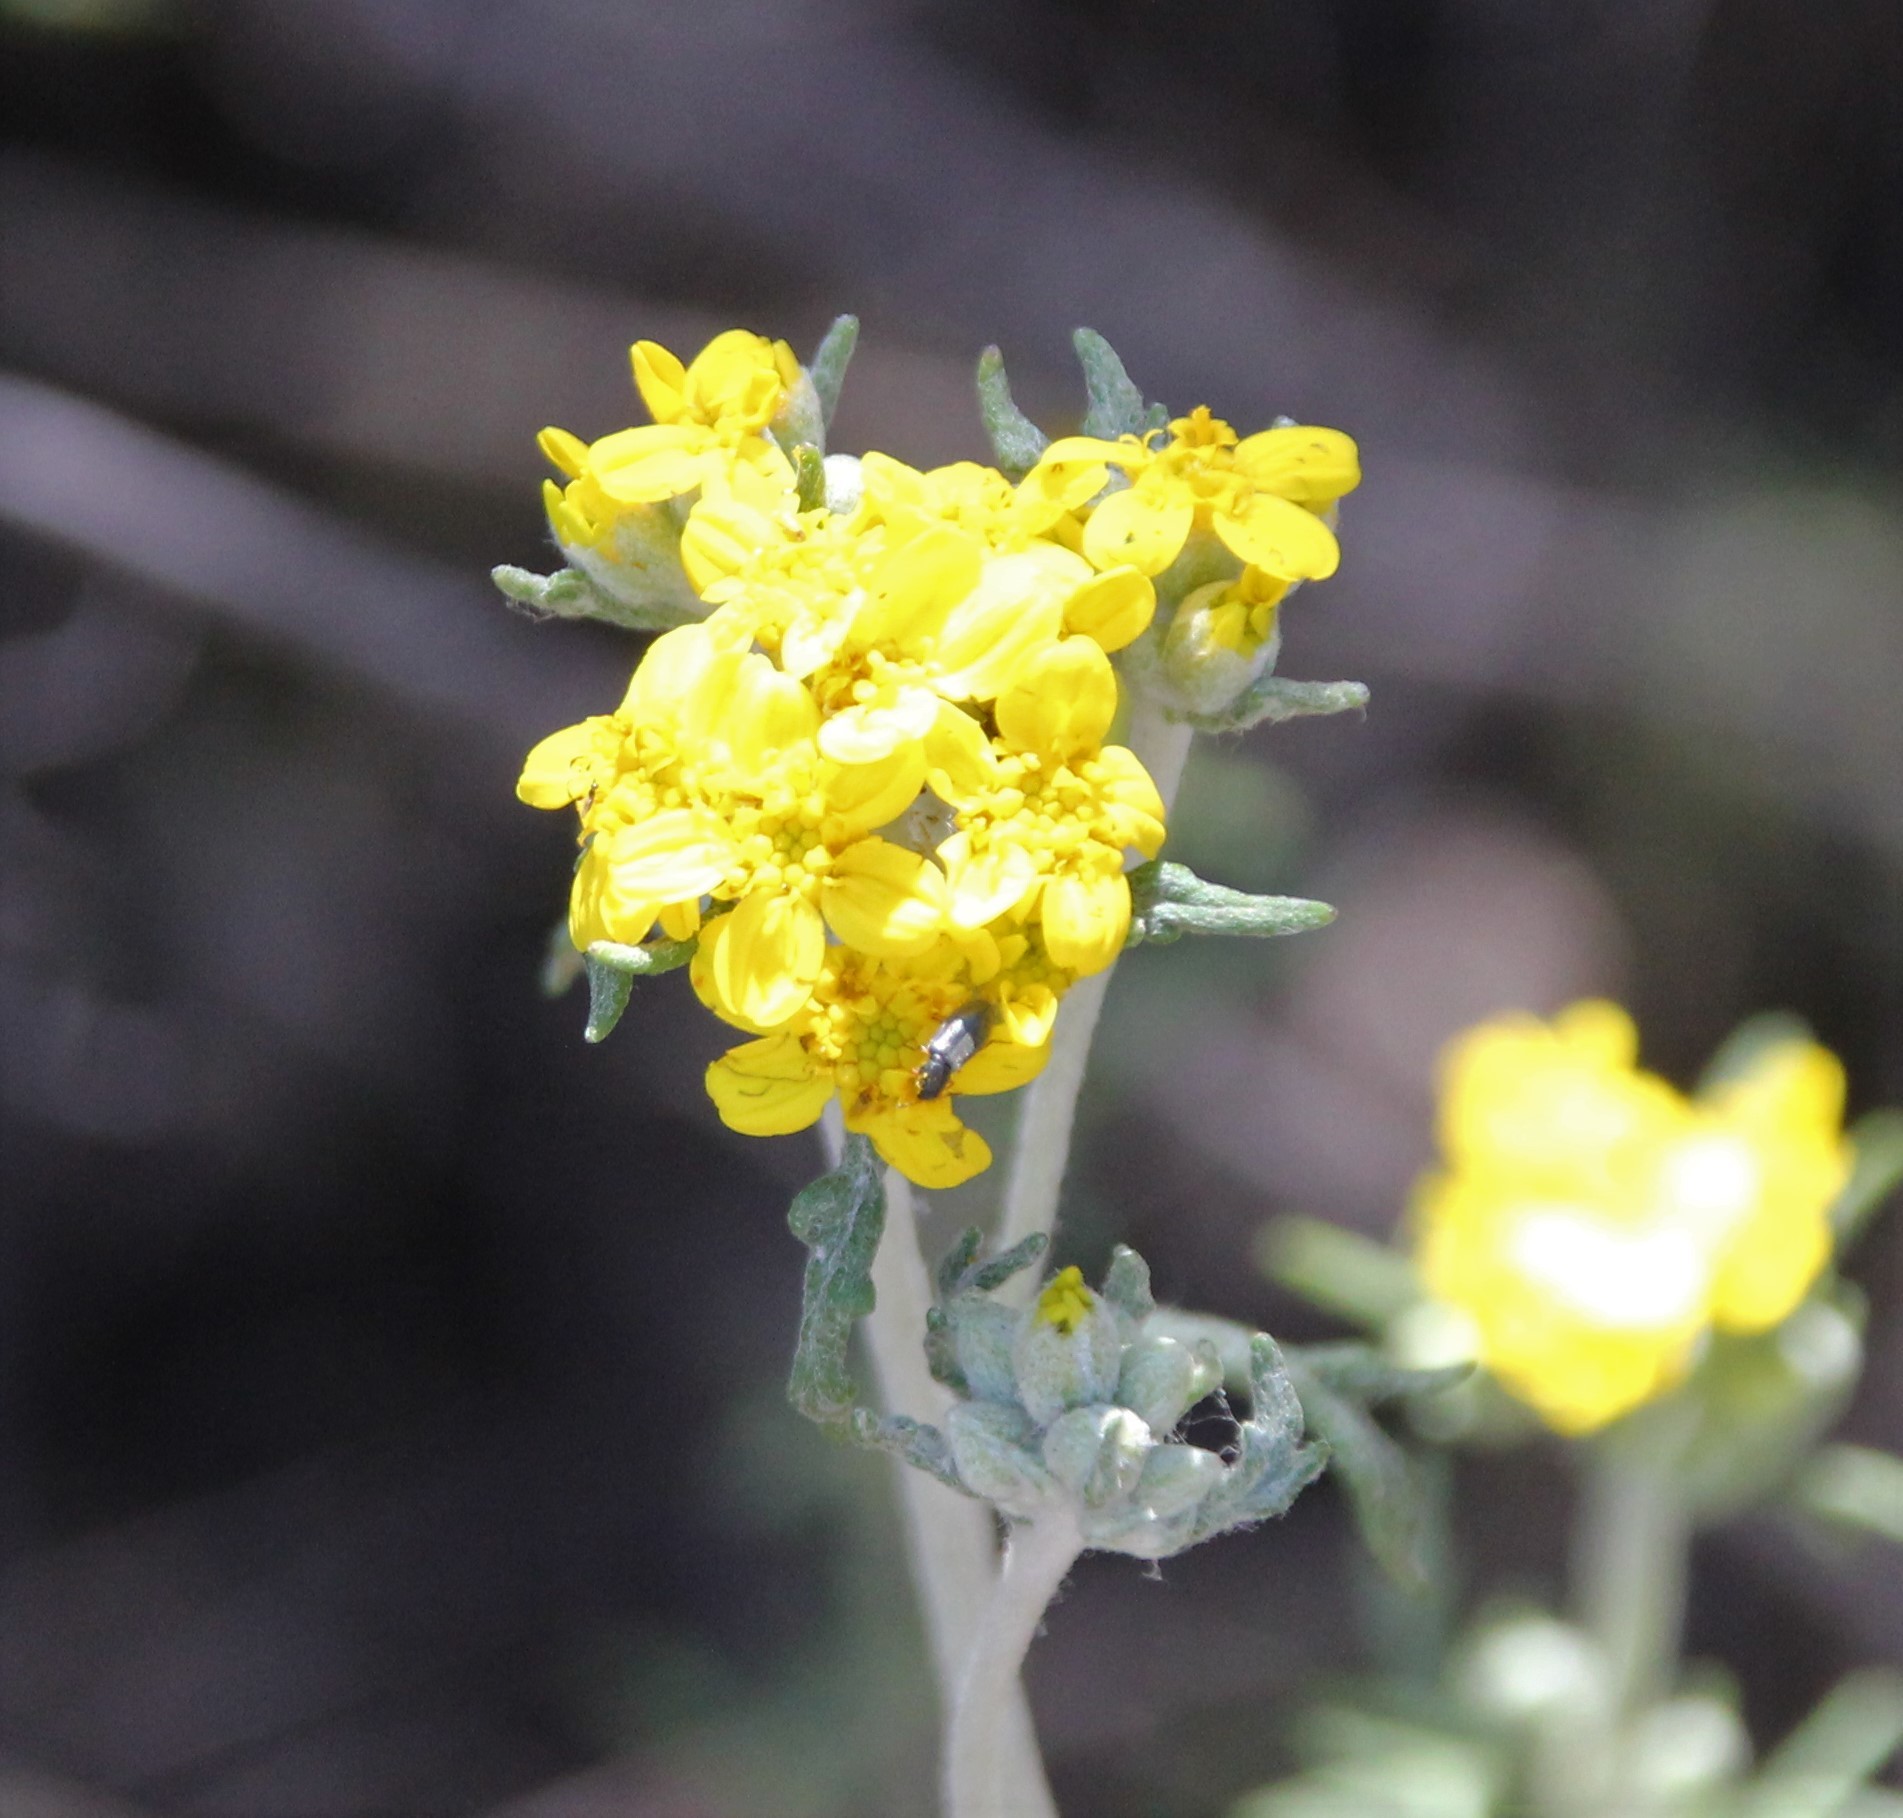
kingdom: Plantae
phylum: Tracheophyta
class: Magnoliopsida
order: Asterales
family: Asteraceae
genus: Eriophyllum
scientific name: Eriophyllum confertiflorum
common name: Golden-yarrow
